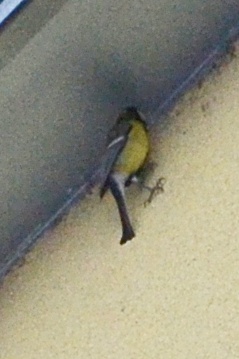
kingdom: Animalia
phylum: Chordata
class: Aves
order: Passeriformes
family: Paridae
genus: Parus
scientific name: Parus major
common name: Great tit
